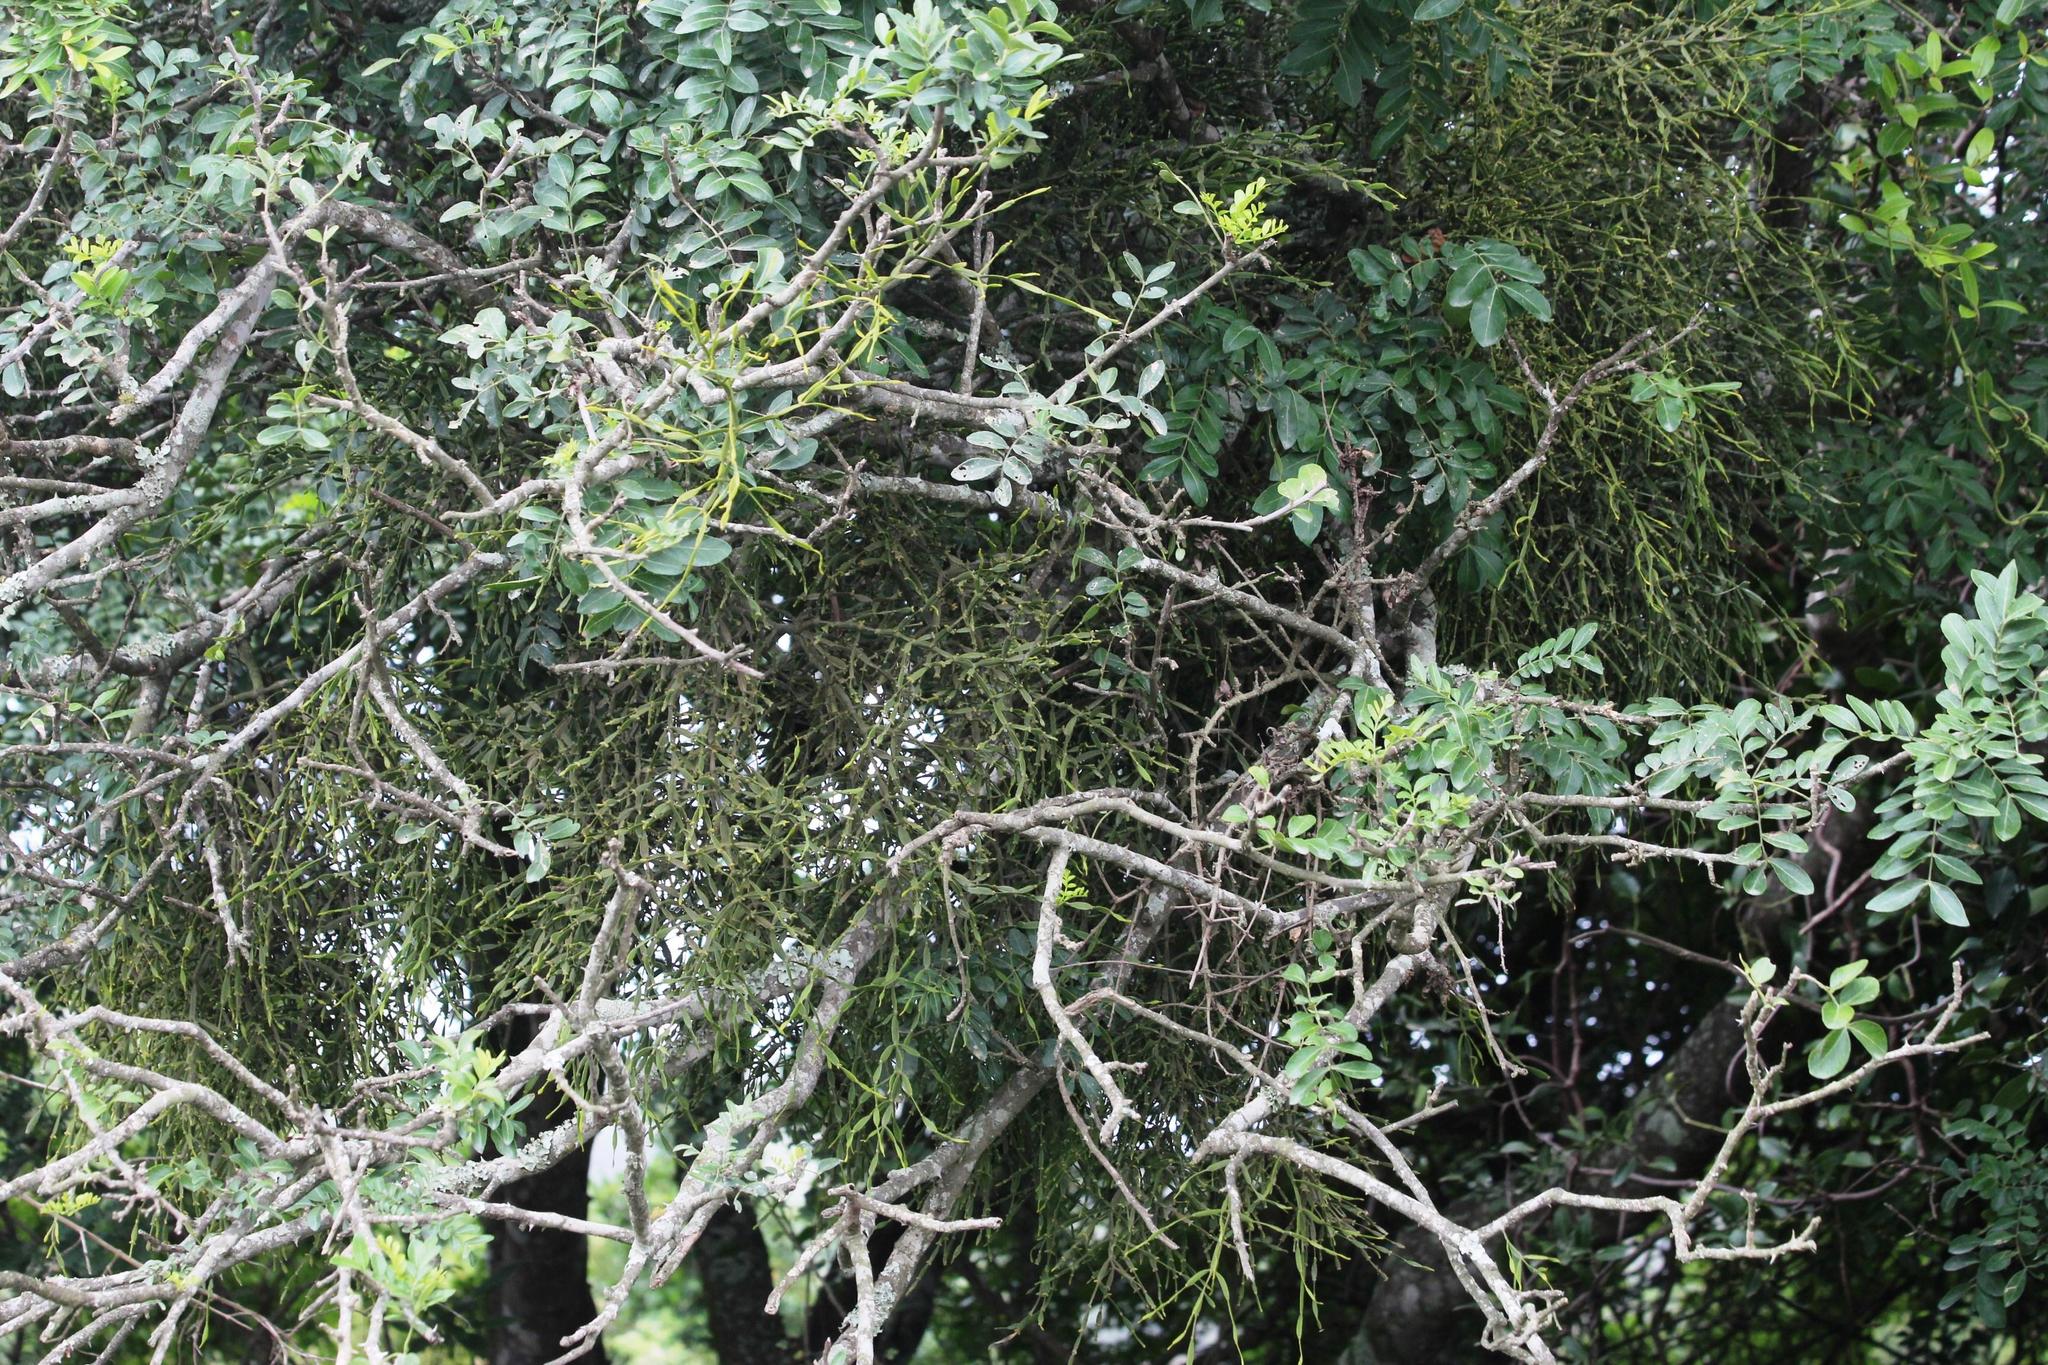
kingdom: Plantae
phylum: Tracheophyta
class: Magnoliopsida
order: Sapindales
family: Rutaceae
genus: Zanthoxylum
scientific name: Zanthoxylum capense
